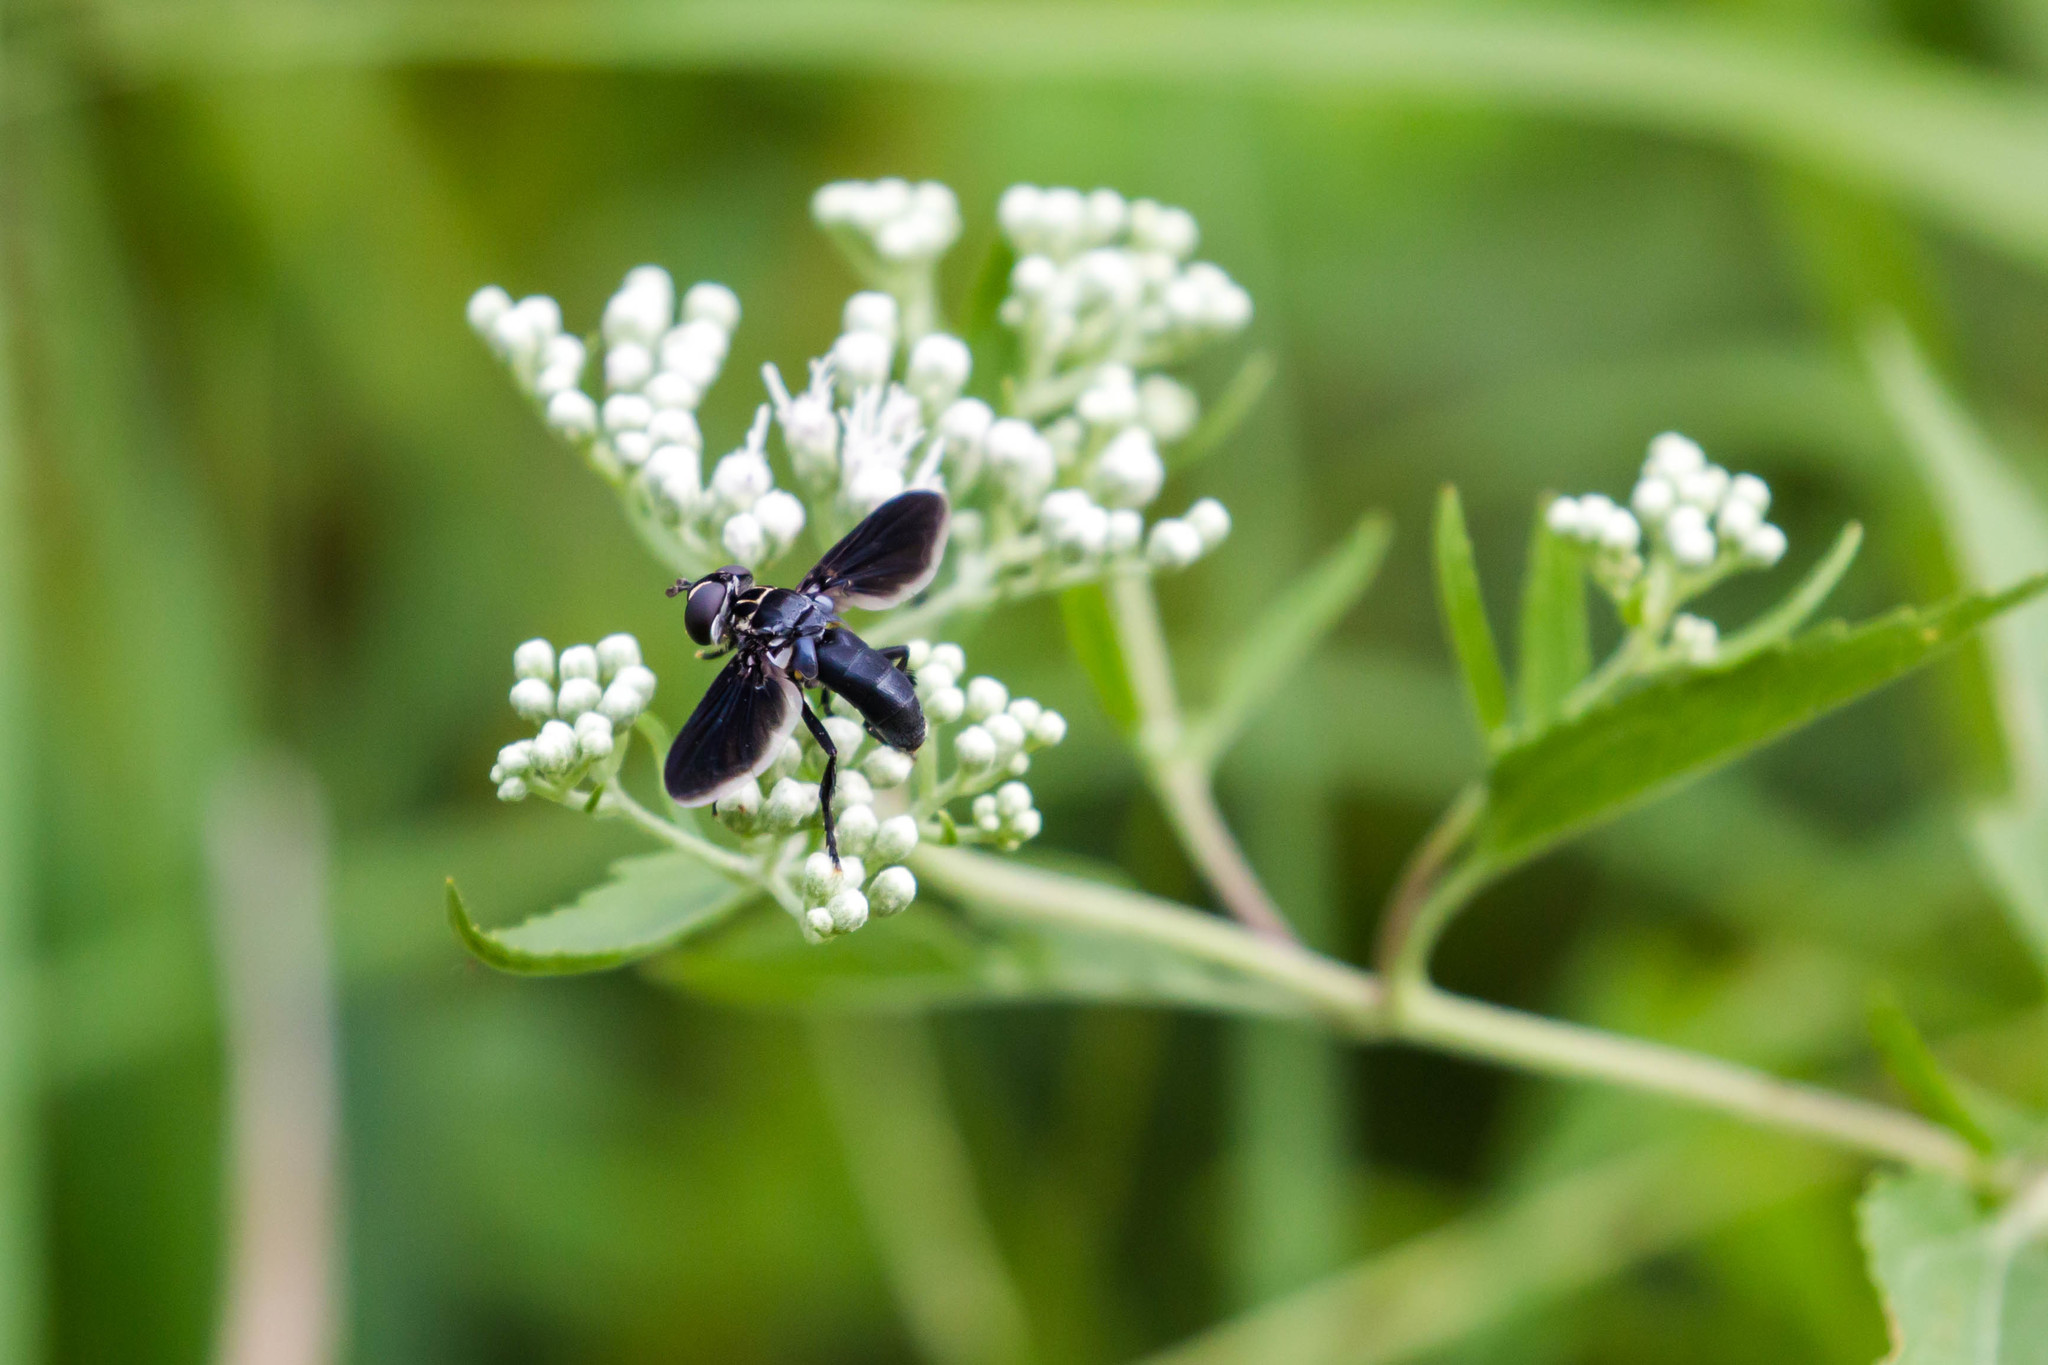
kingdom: Animalia
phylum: Arthropoda
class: Insecta
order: Diptera
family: Tachinidae
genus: Trichopoda
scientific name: Trichopoda lanipes
